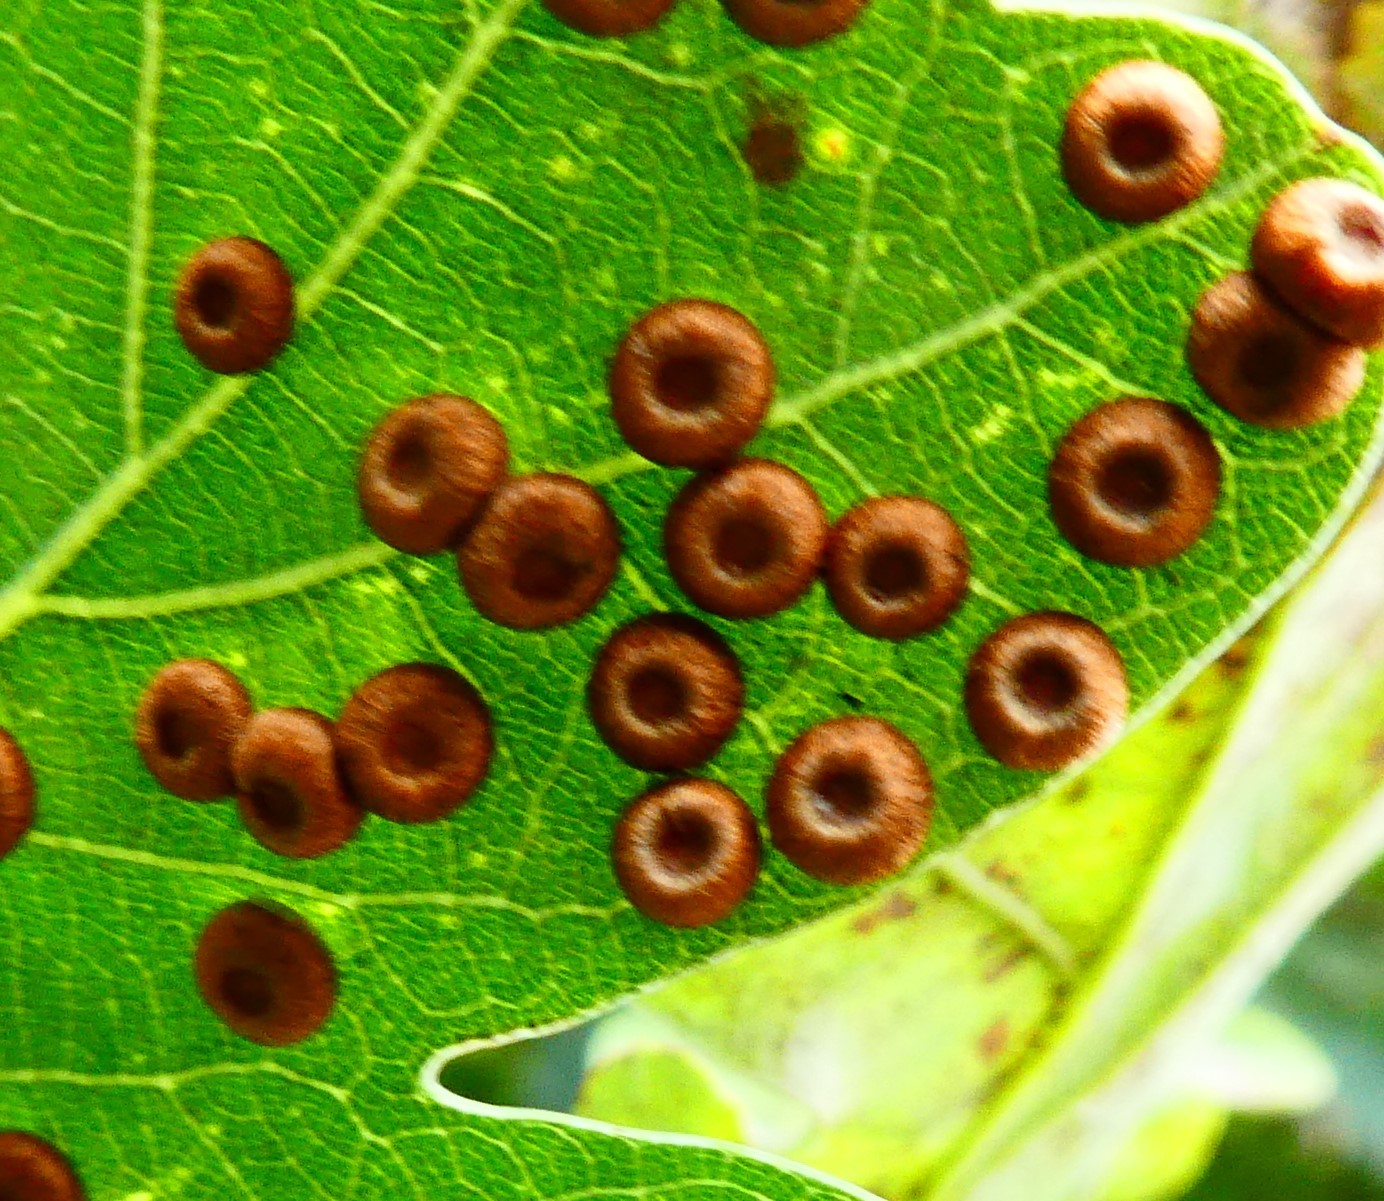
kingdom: Animalia
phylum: Arthropoda
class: Insecta
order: Hymenoptera
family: Cynipidae
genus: Neuroterus
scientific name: Neuroterus numismalis
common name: Silk-button spangle gall
